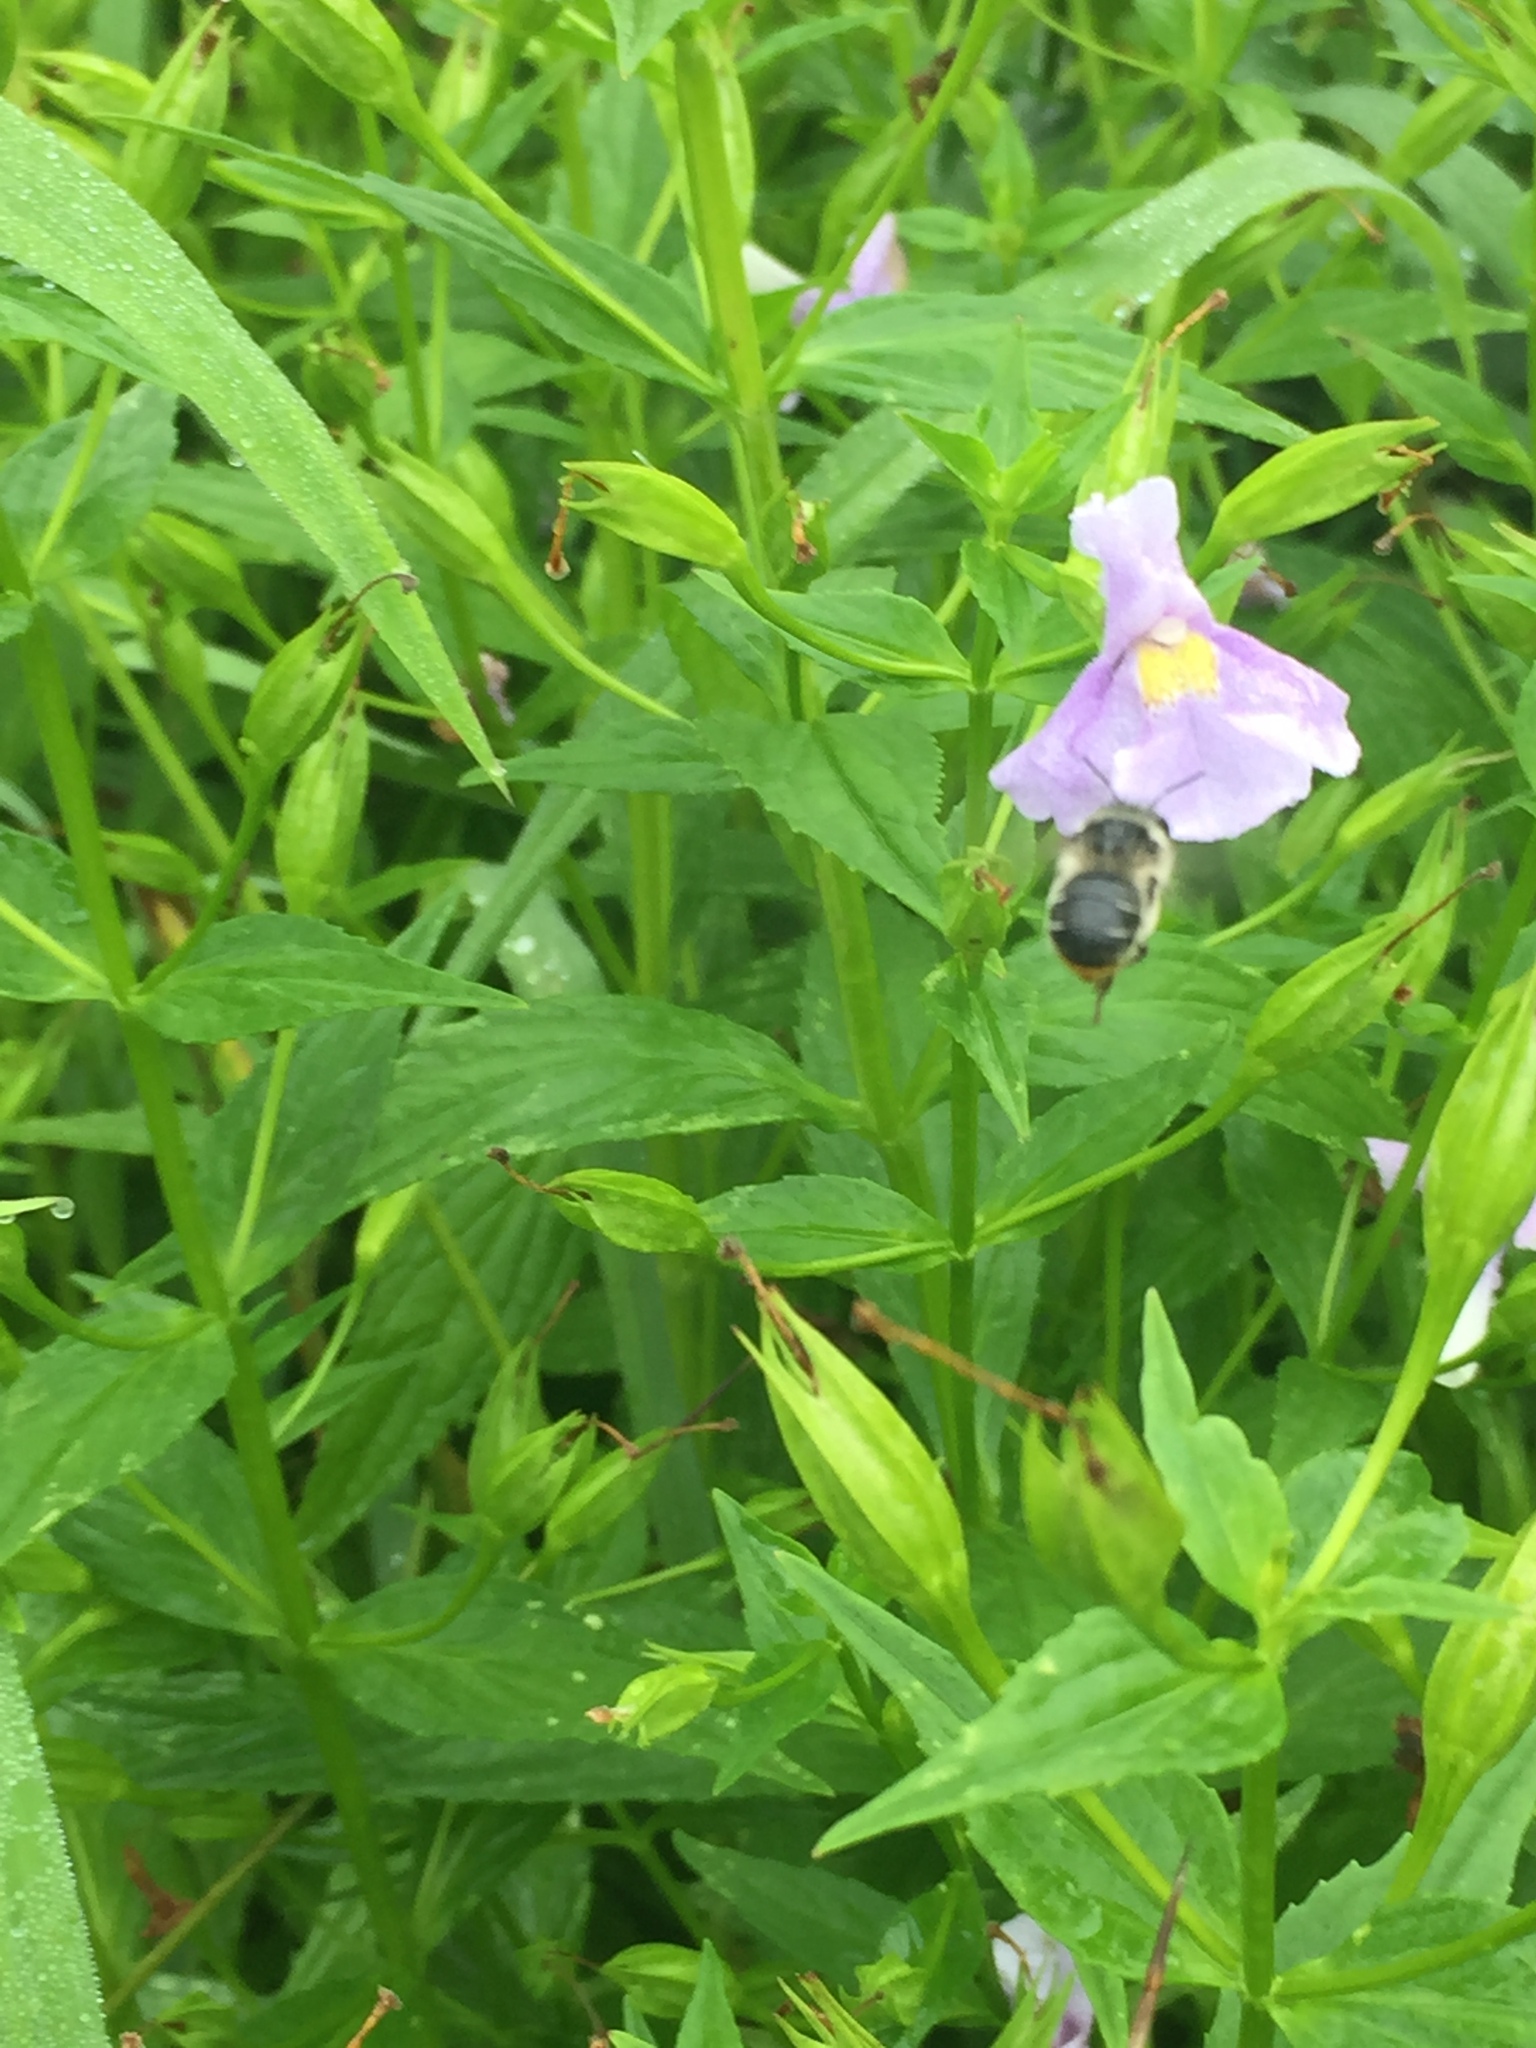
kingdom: Animalia
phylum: Arthropoda
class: Insecta
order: Hymenoptera
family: Apidae
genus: Anthophora
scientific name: Anthophora terminalis
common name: Orange-tipped wood-digger bee
